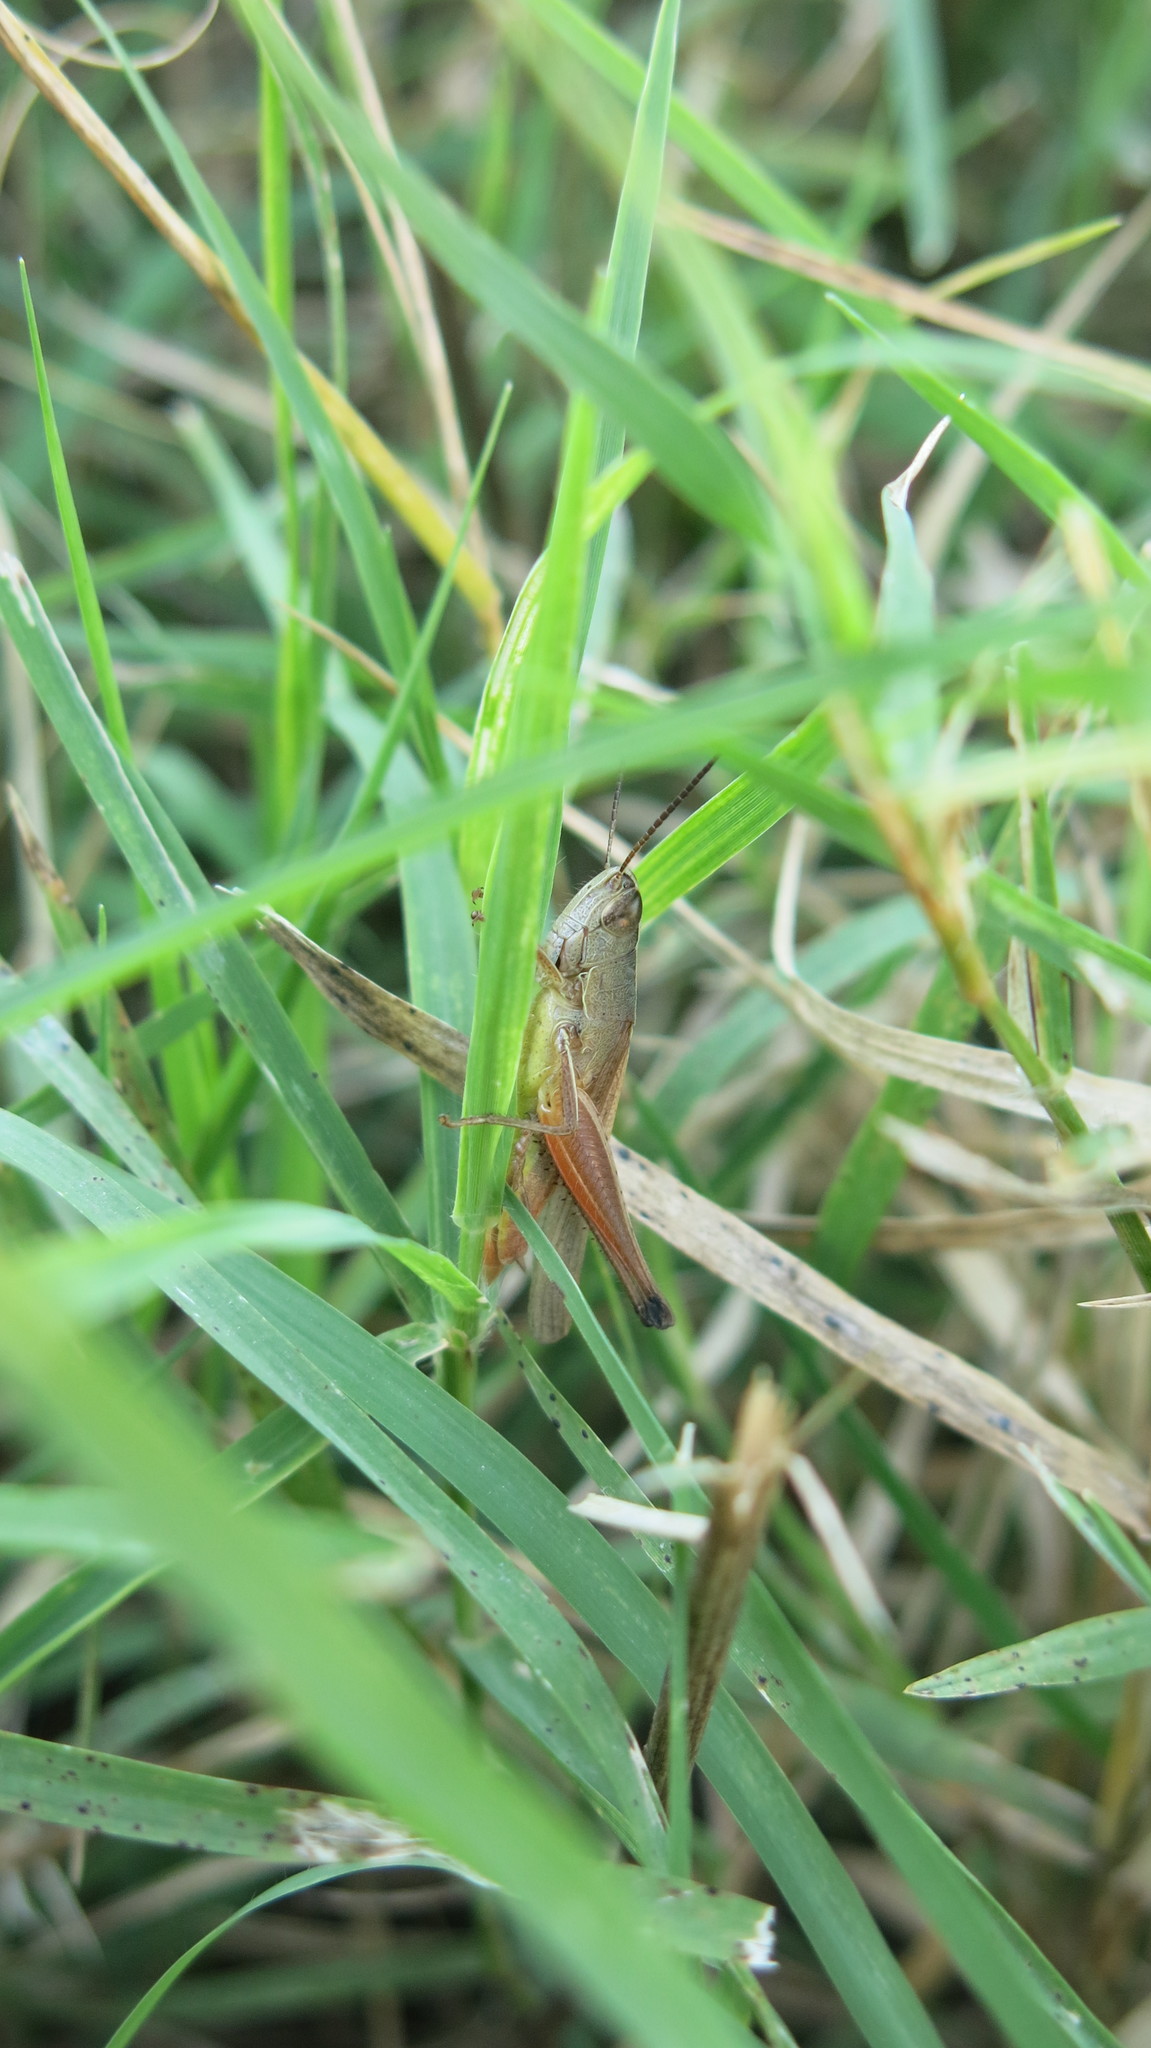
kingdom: Animalia
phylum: Arthropoda
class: Insecta
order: Orthoptera
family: Acrididae
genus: Amblytropidia
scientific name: Amblytropidia australis
